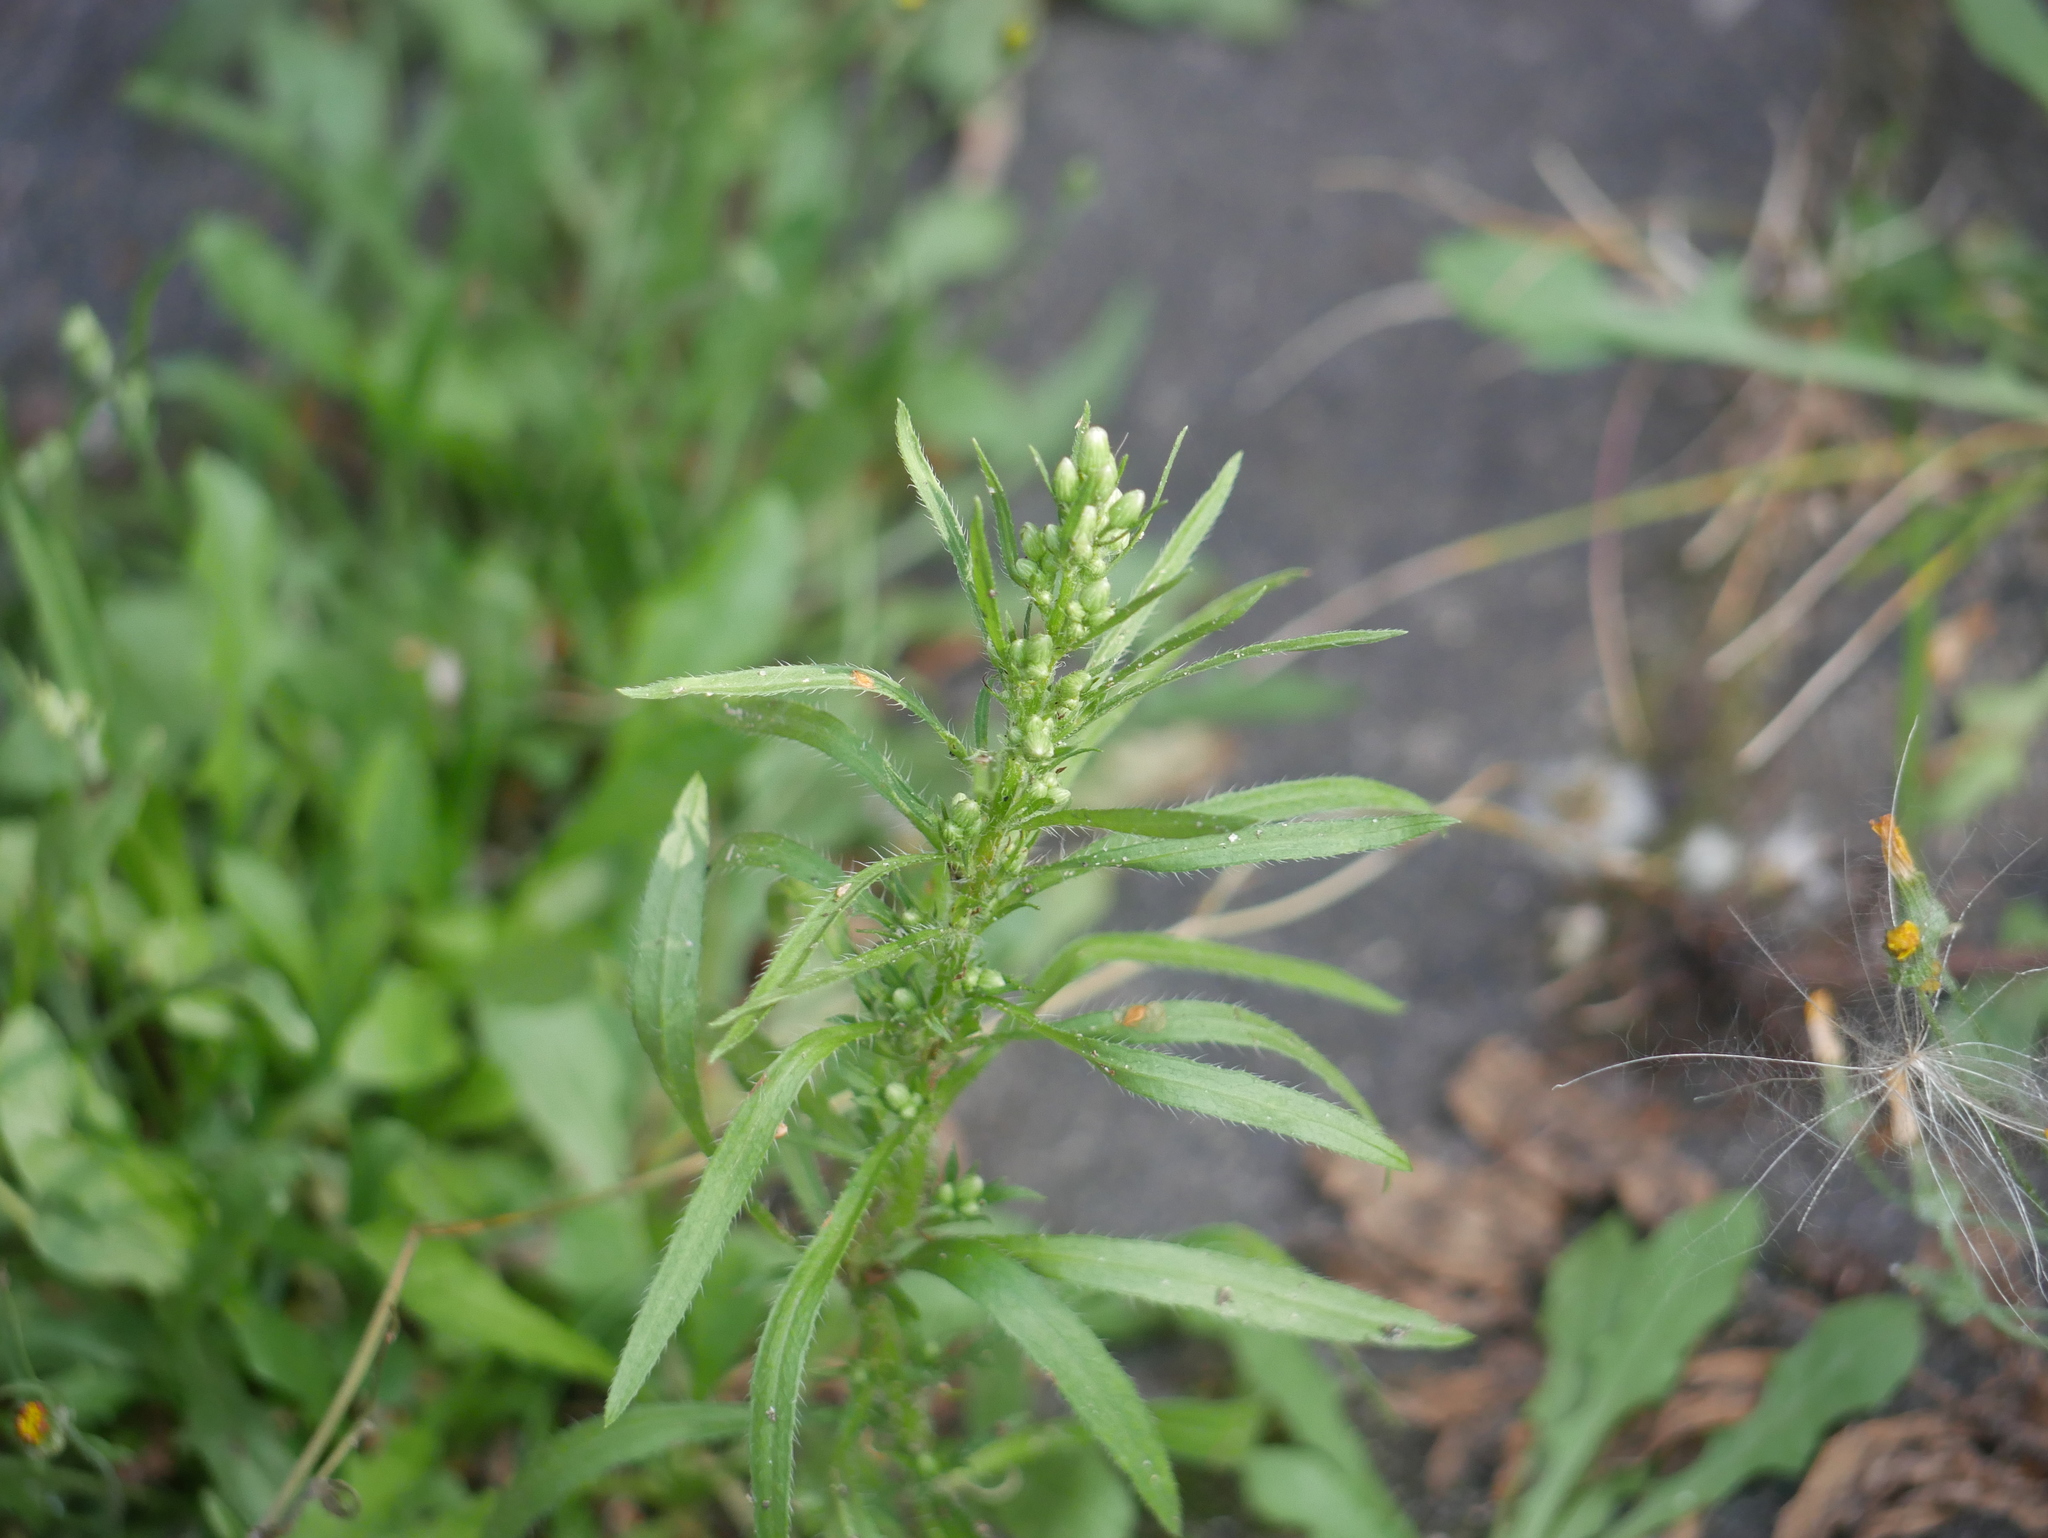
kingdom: Plantae
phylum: Tracheophyta
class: Magnoliopsida
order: Asterales
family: Asteraceae
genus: Erigeron
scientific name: Erigeron canadensis
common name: Canadian fleabane
